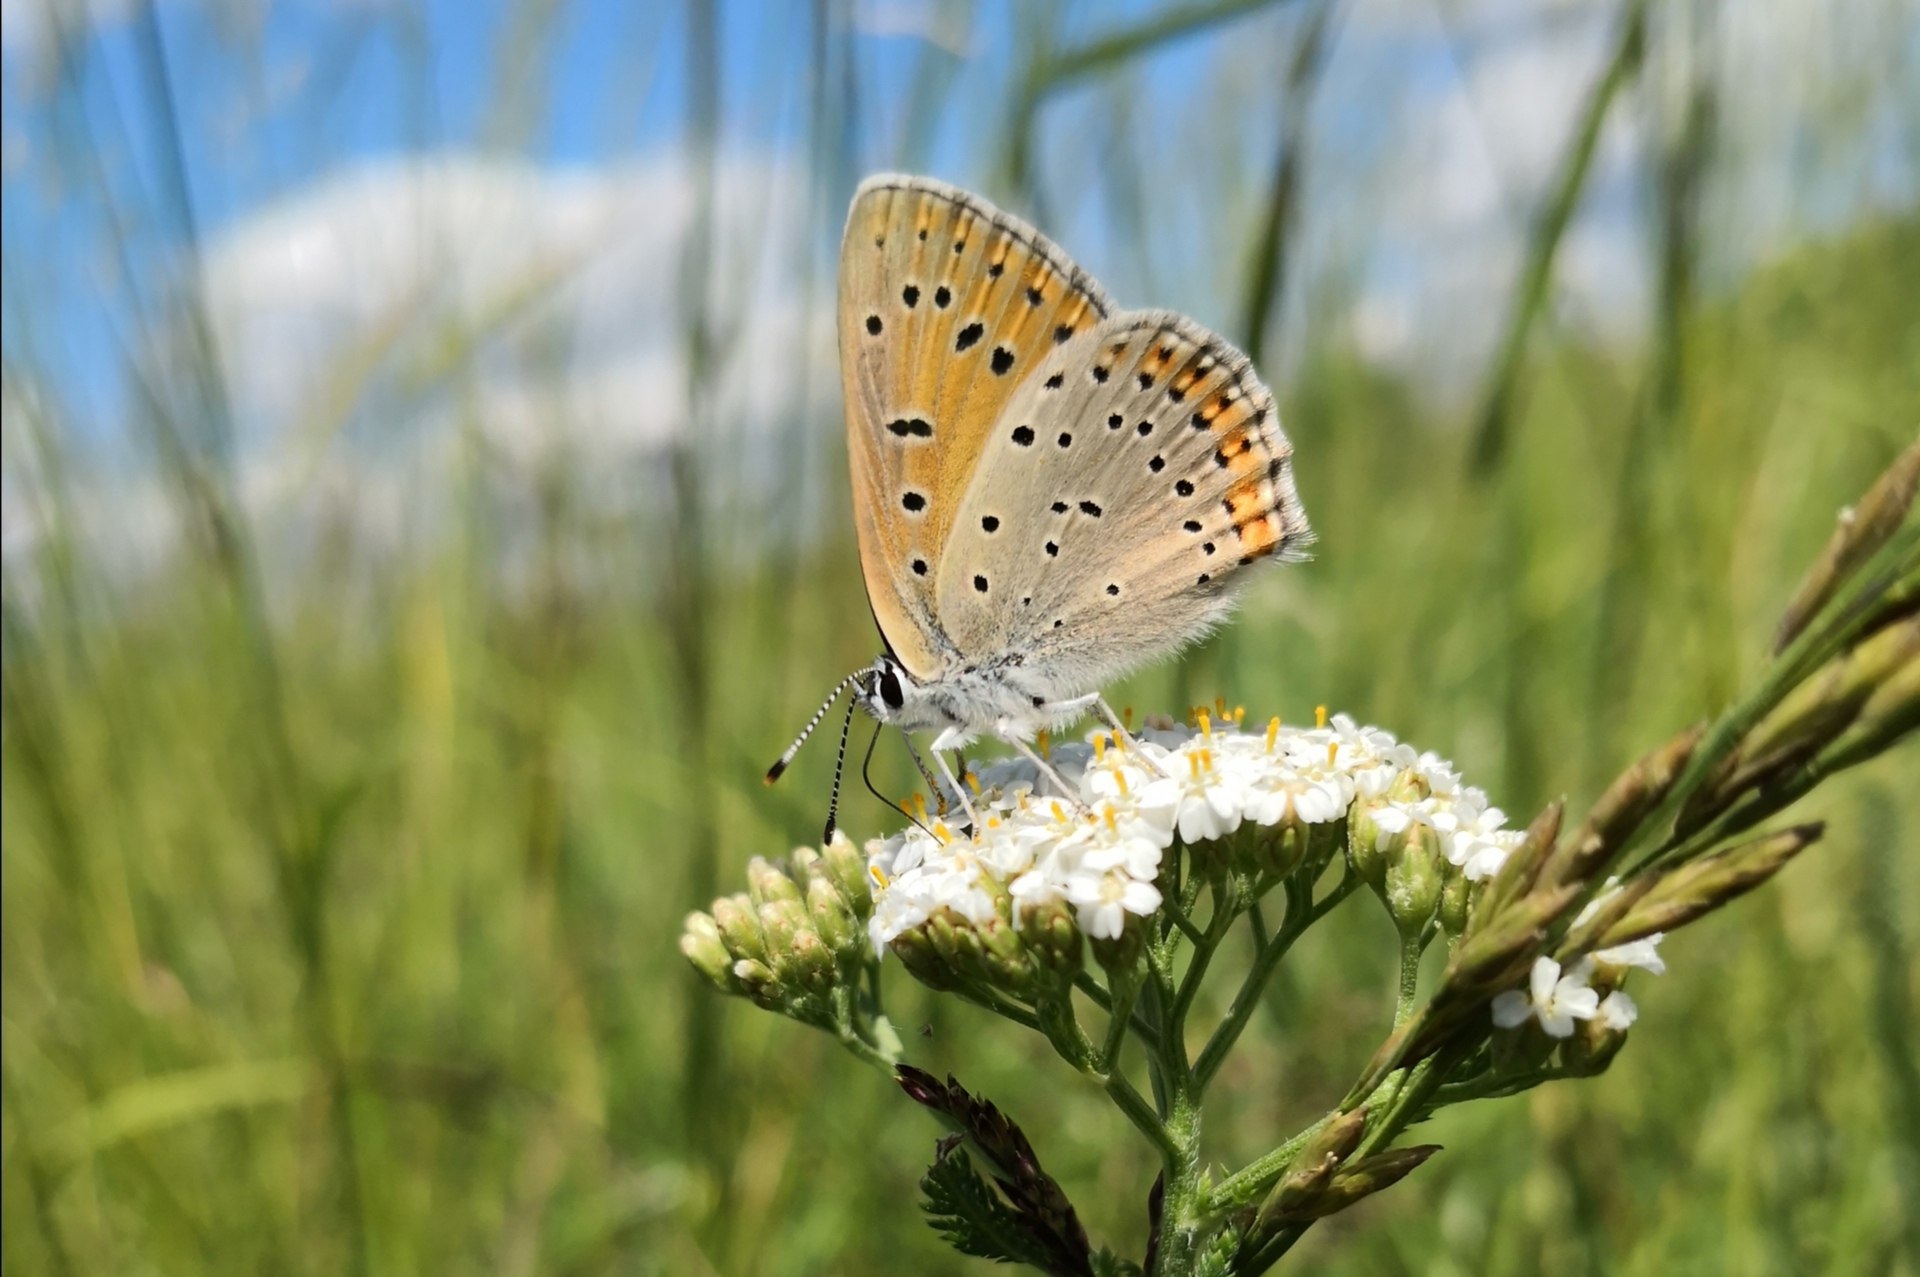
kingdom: Animalia
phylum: Arthropoda
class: Insecta
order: Lepidoptera
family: Lycaenidae
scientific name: Lycaenidae
